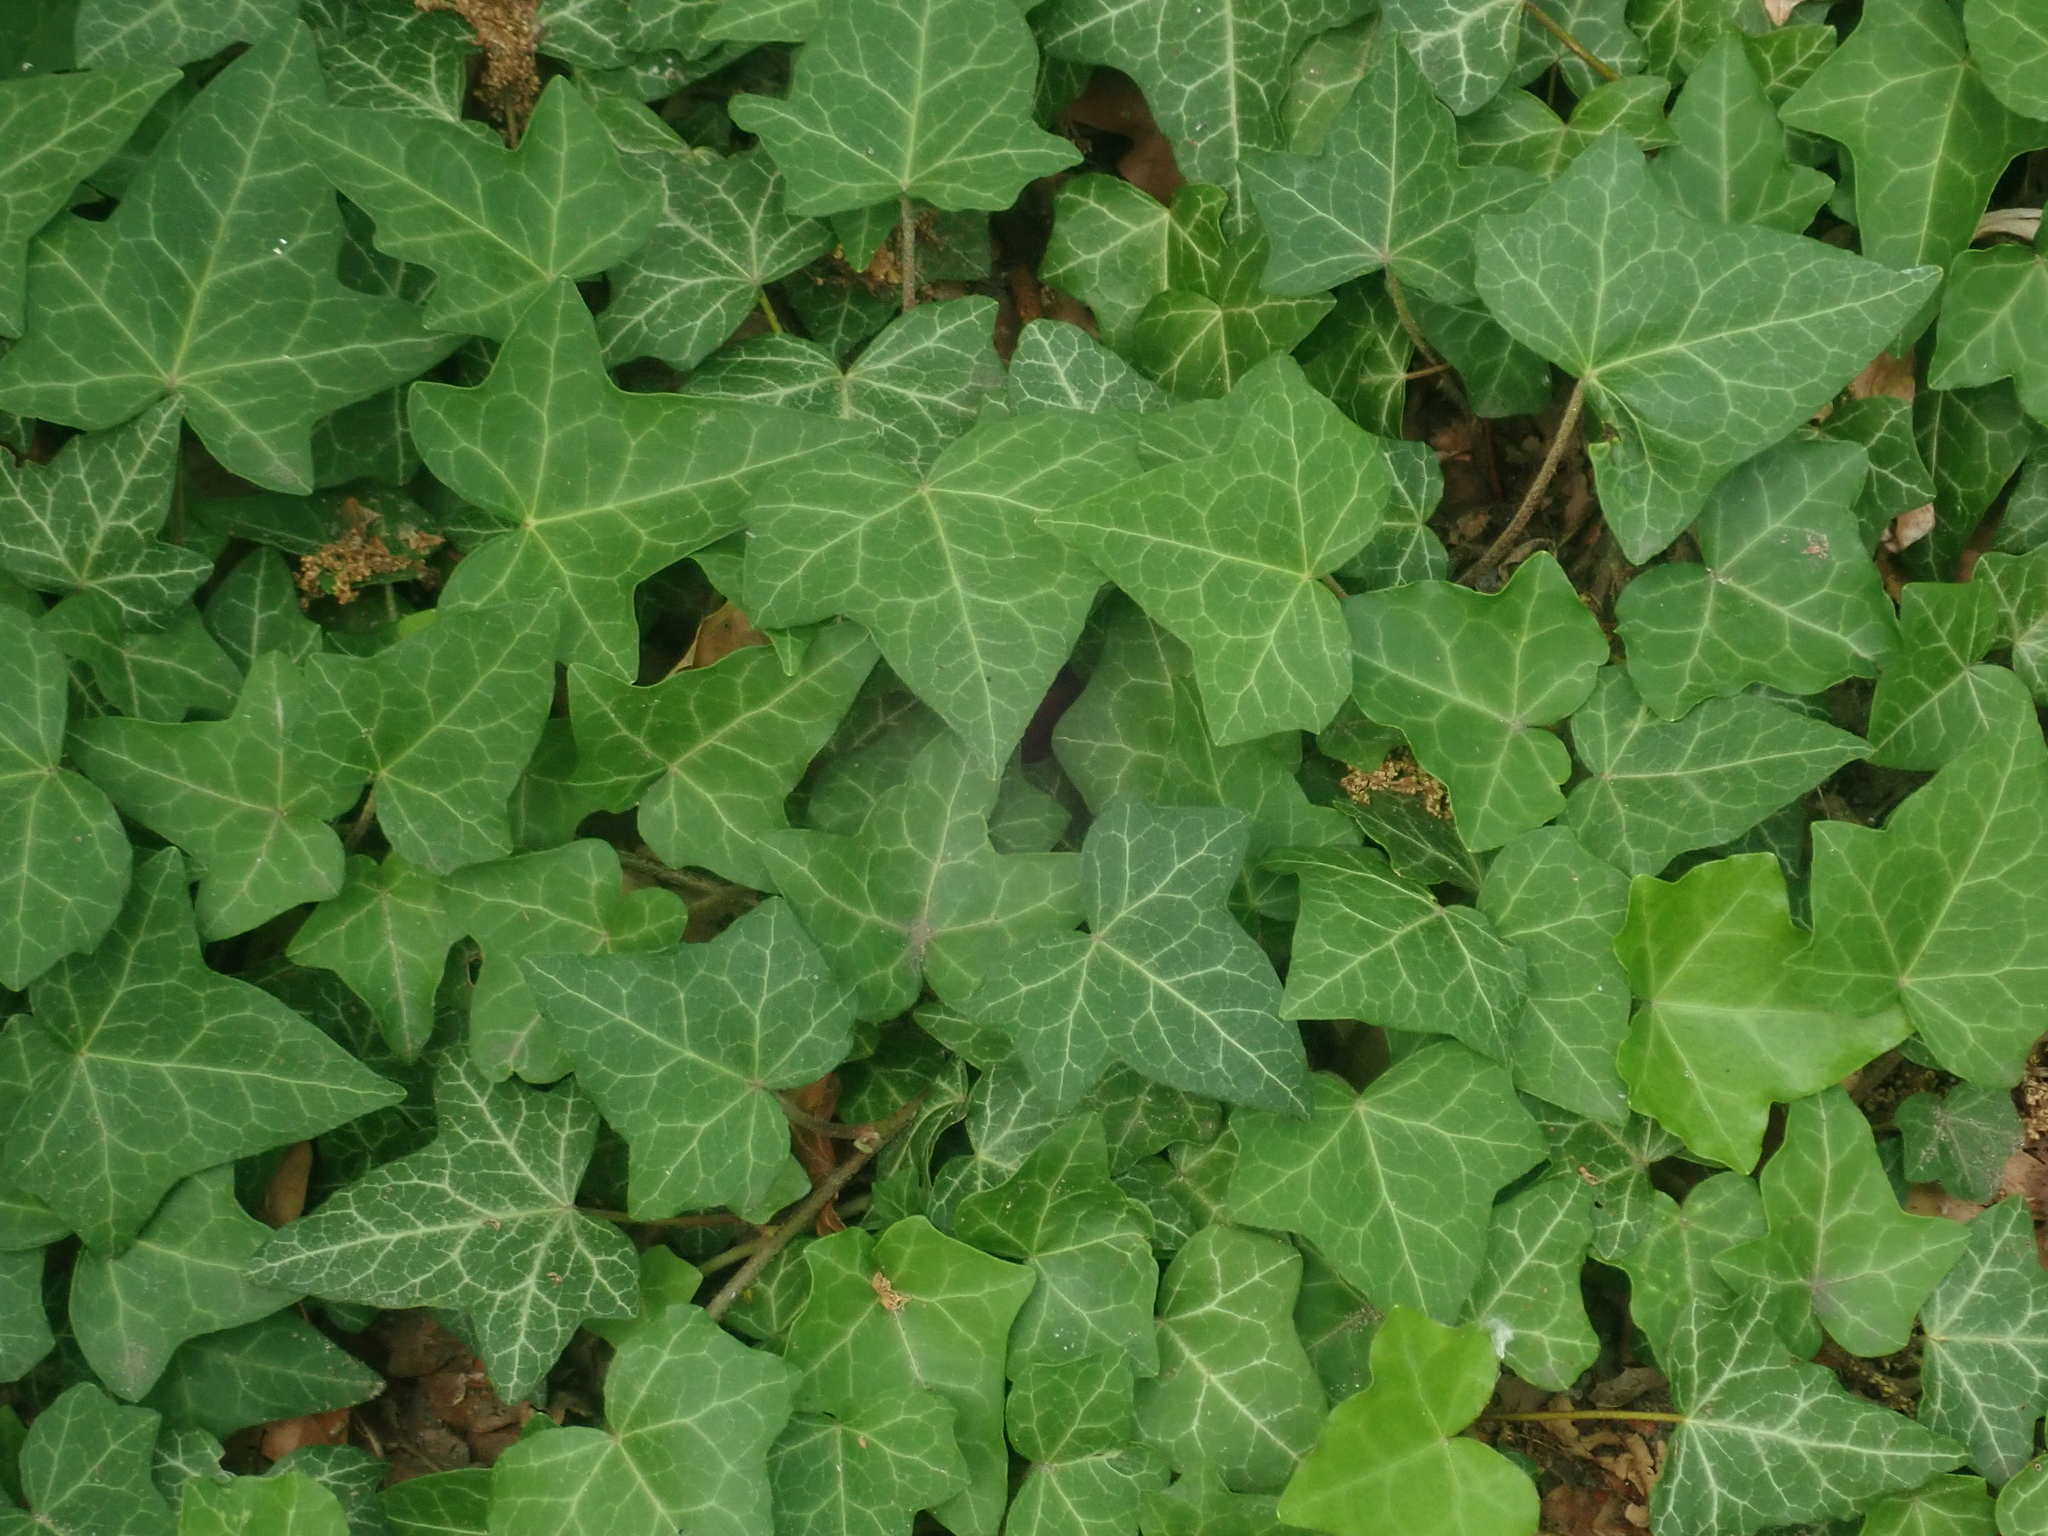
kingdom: Plantae
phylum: Tracheophyta
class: Magnoliopsida
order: Apiales
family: Araliaceae
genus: Hedera
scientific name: Hedera helix
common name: Ivy
